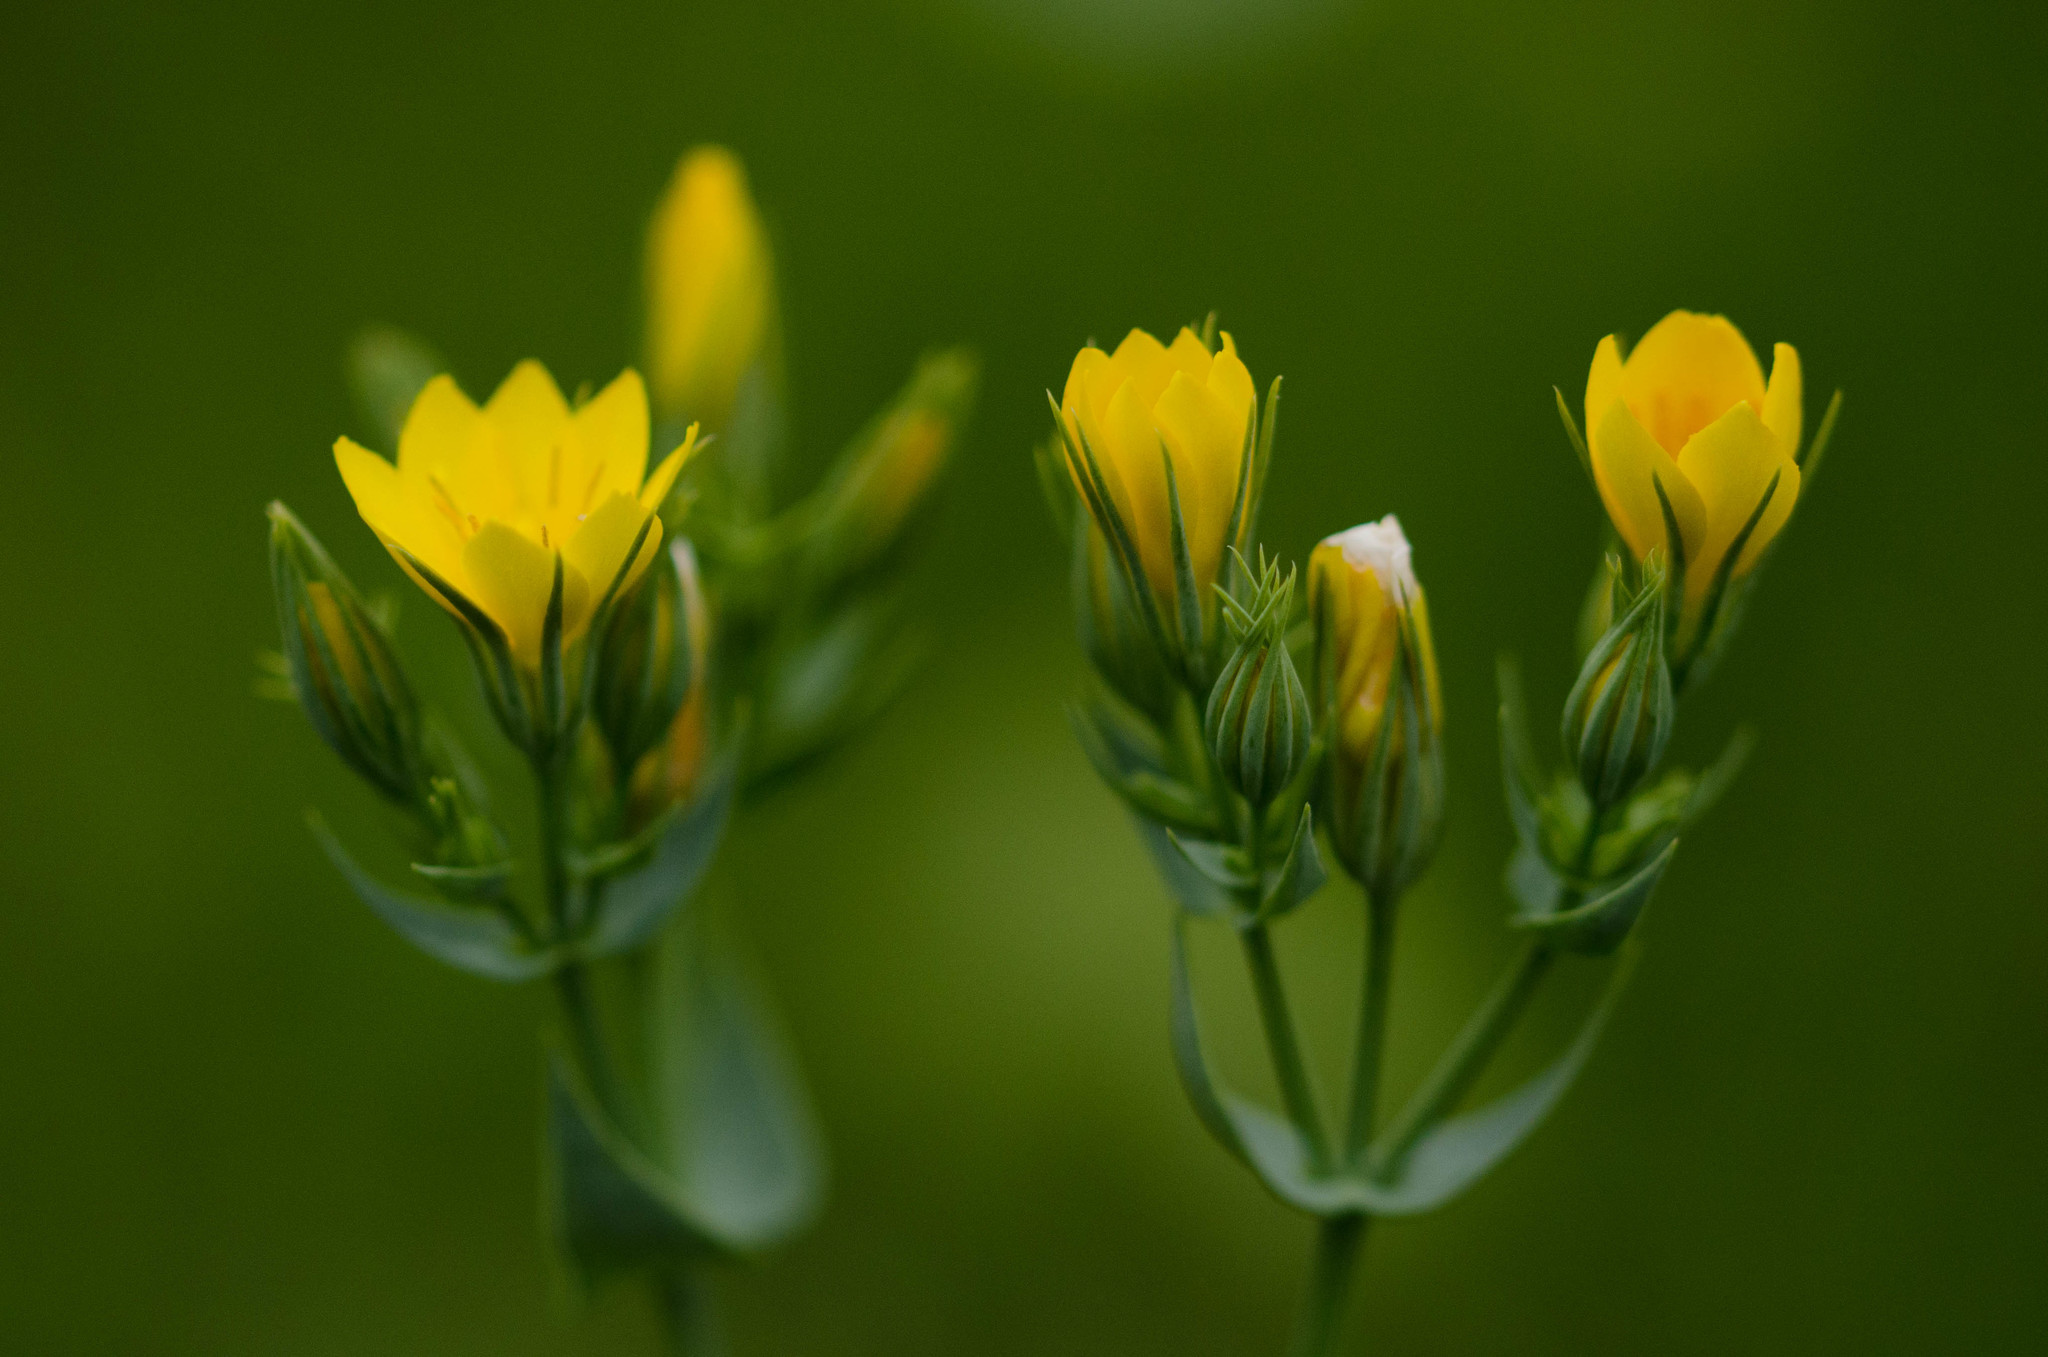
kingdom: Plantae
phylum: Tracheophyta
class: Magnoliopsida
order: Gentianales
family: Gentianaceae
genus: Blackstonia
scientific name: Blackstonia perfoliata
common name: Yellow-wort
